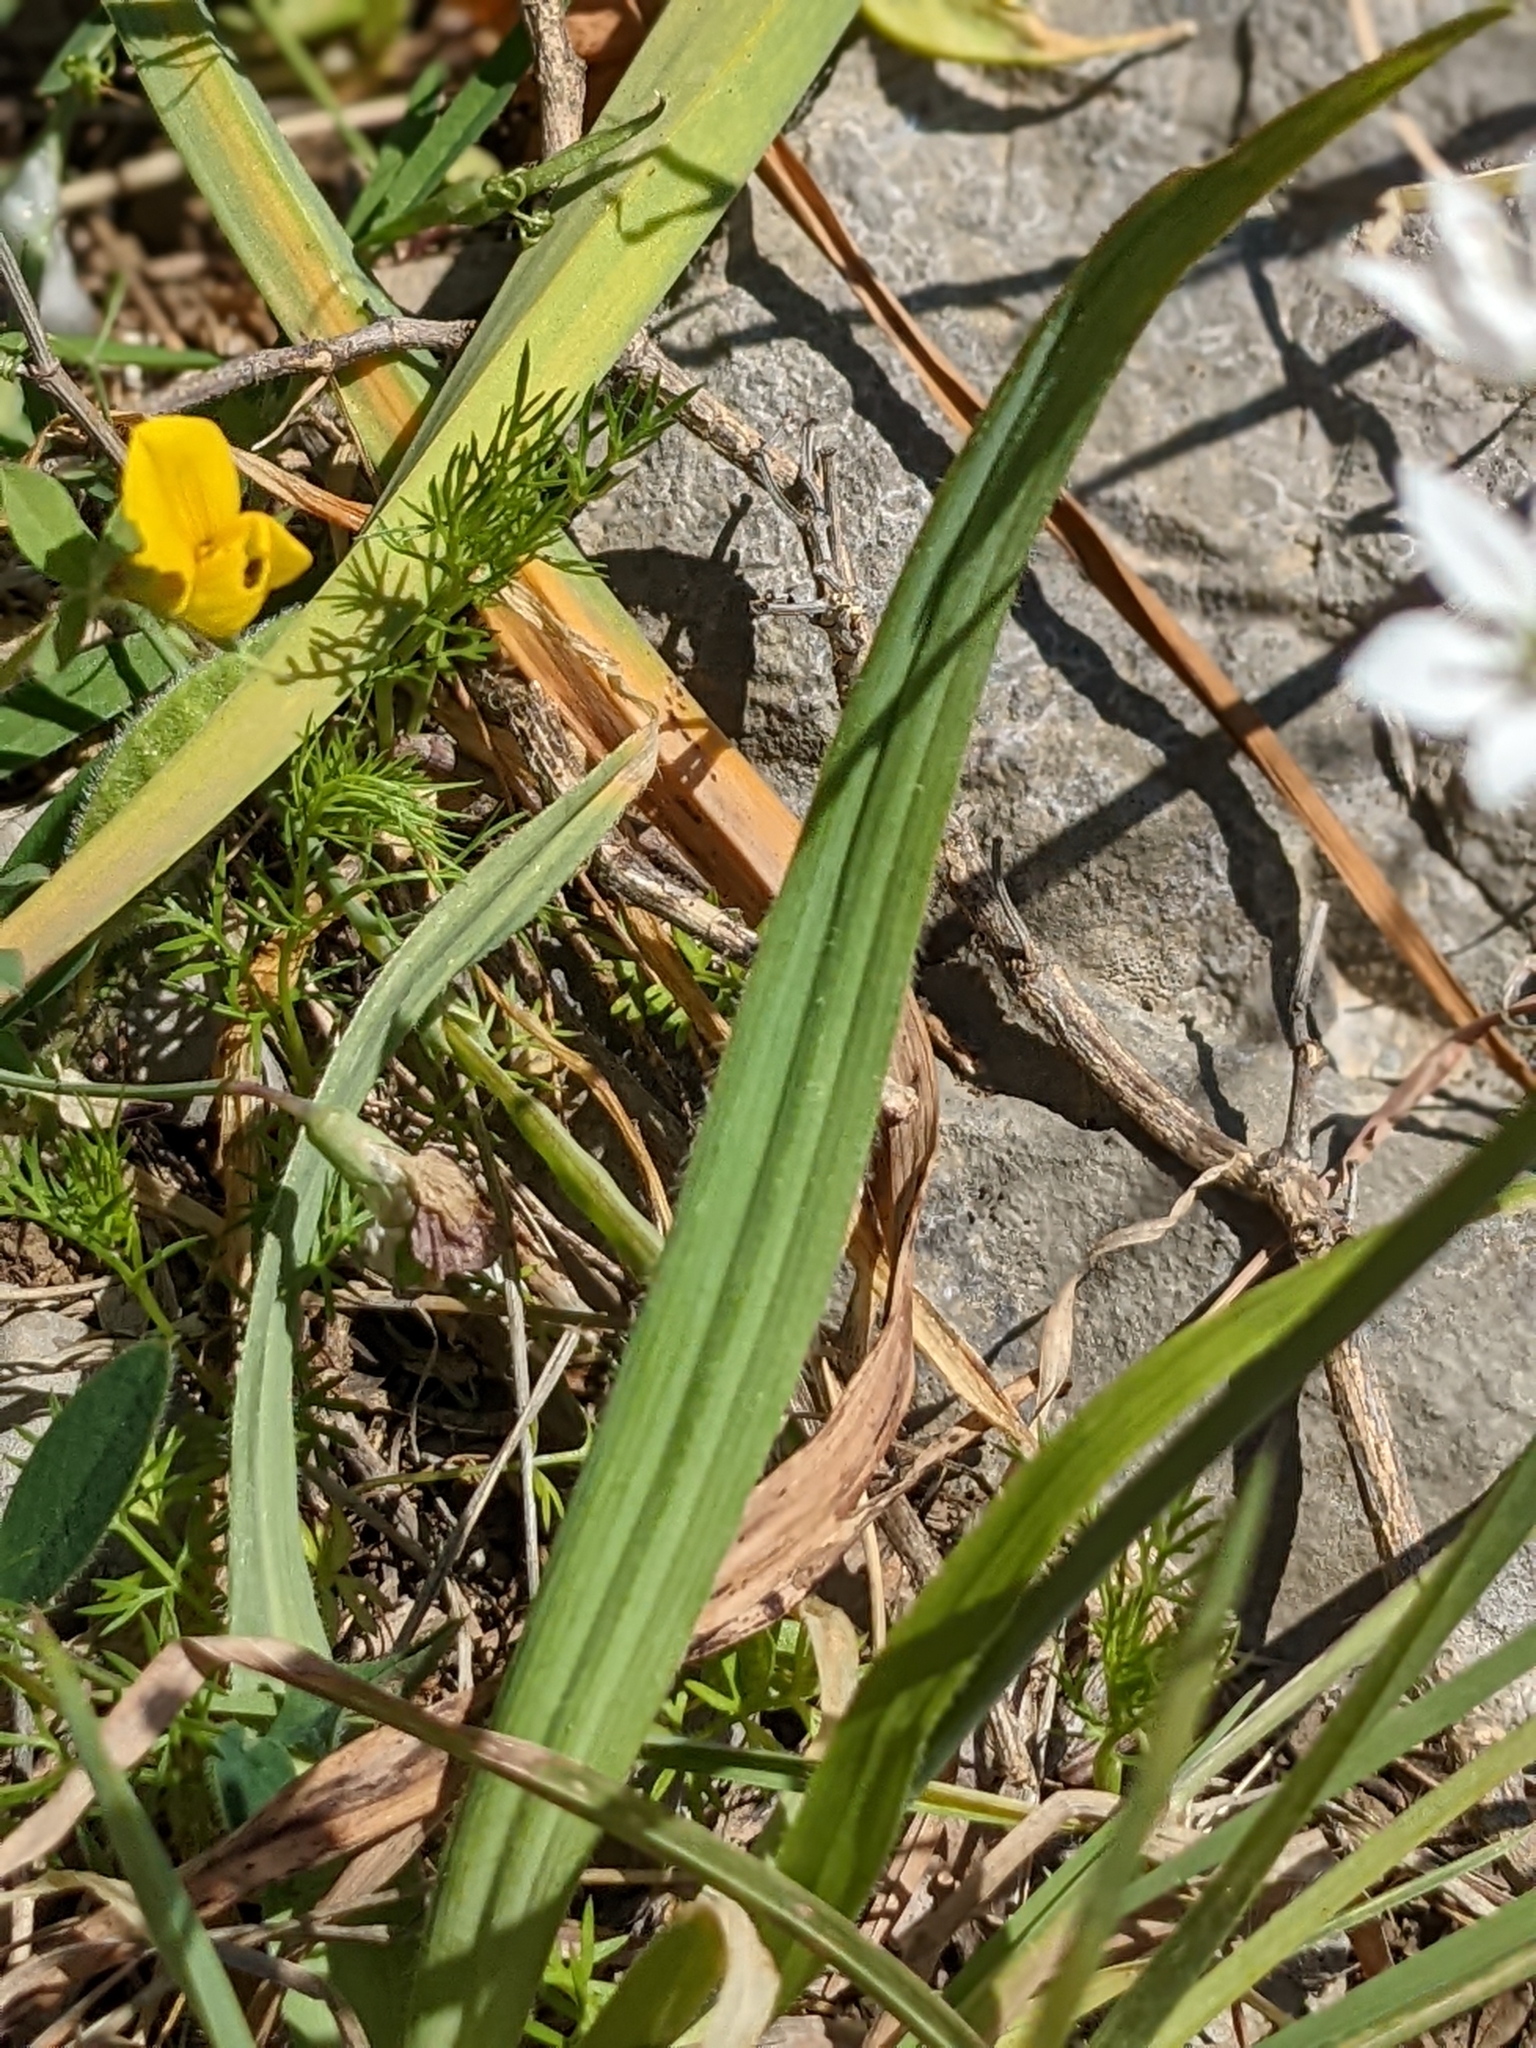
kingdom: Plantae
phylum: Tracheophyta
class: Liliopsida
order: Asparagales
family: Amaryllidaceae
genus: Allium
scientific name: Allium subhirsutum
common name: Hairy garlic
